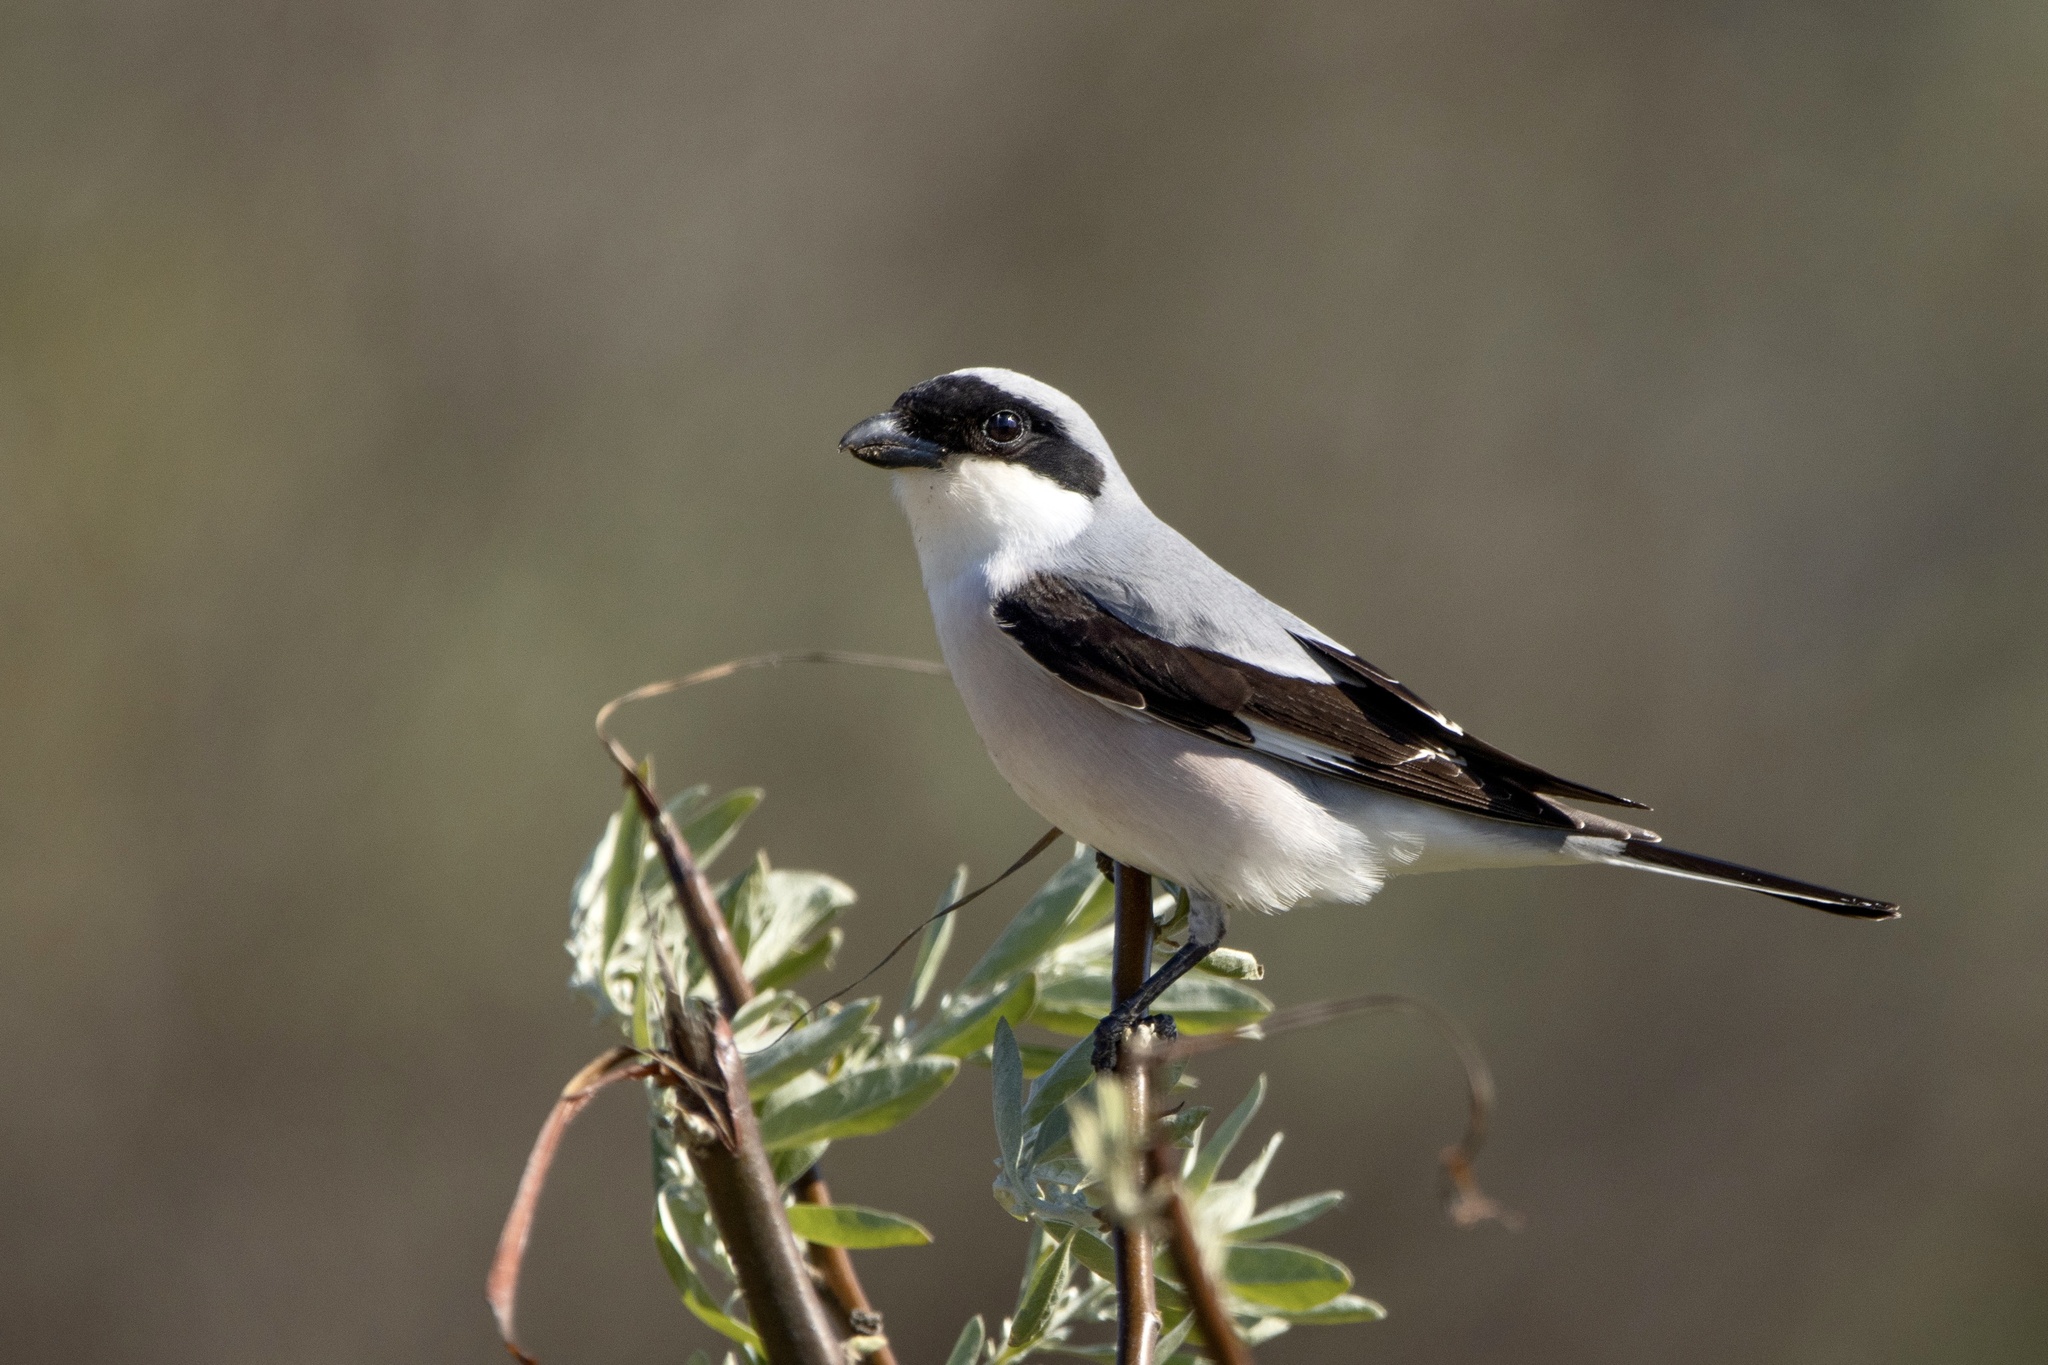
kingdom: Animalia
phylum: Chordata
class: Aves
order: Passeriformes
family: Laniidae
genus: Lanius
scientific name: Lanius minor
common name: Lesser grey shrike
